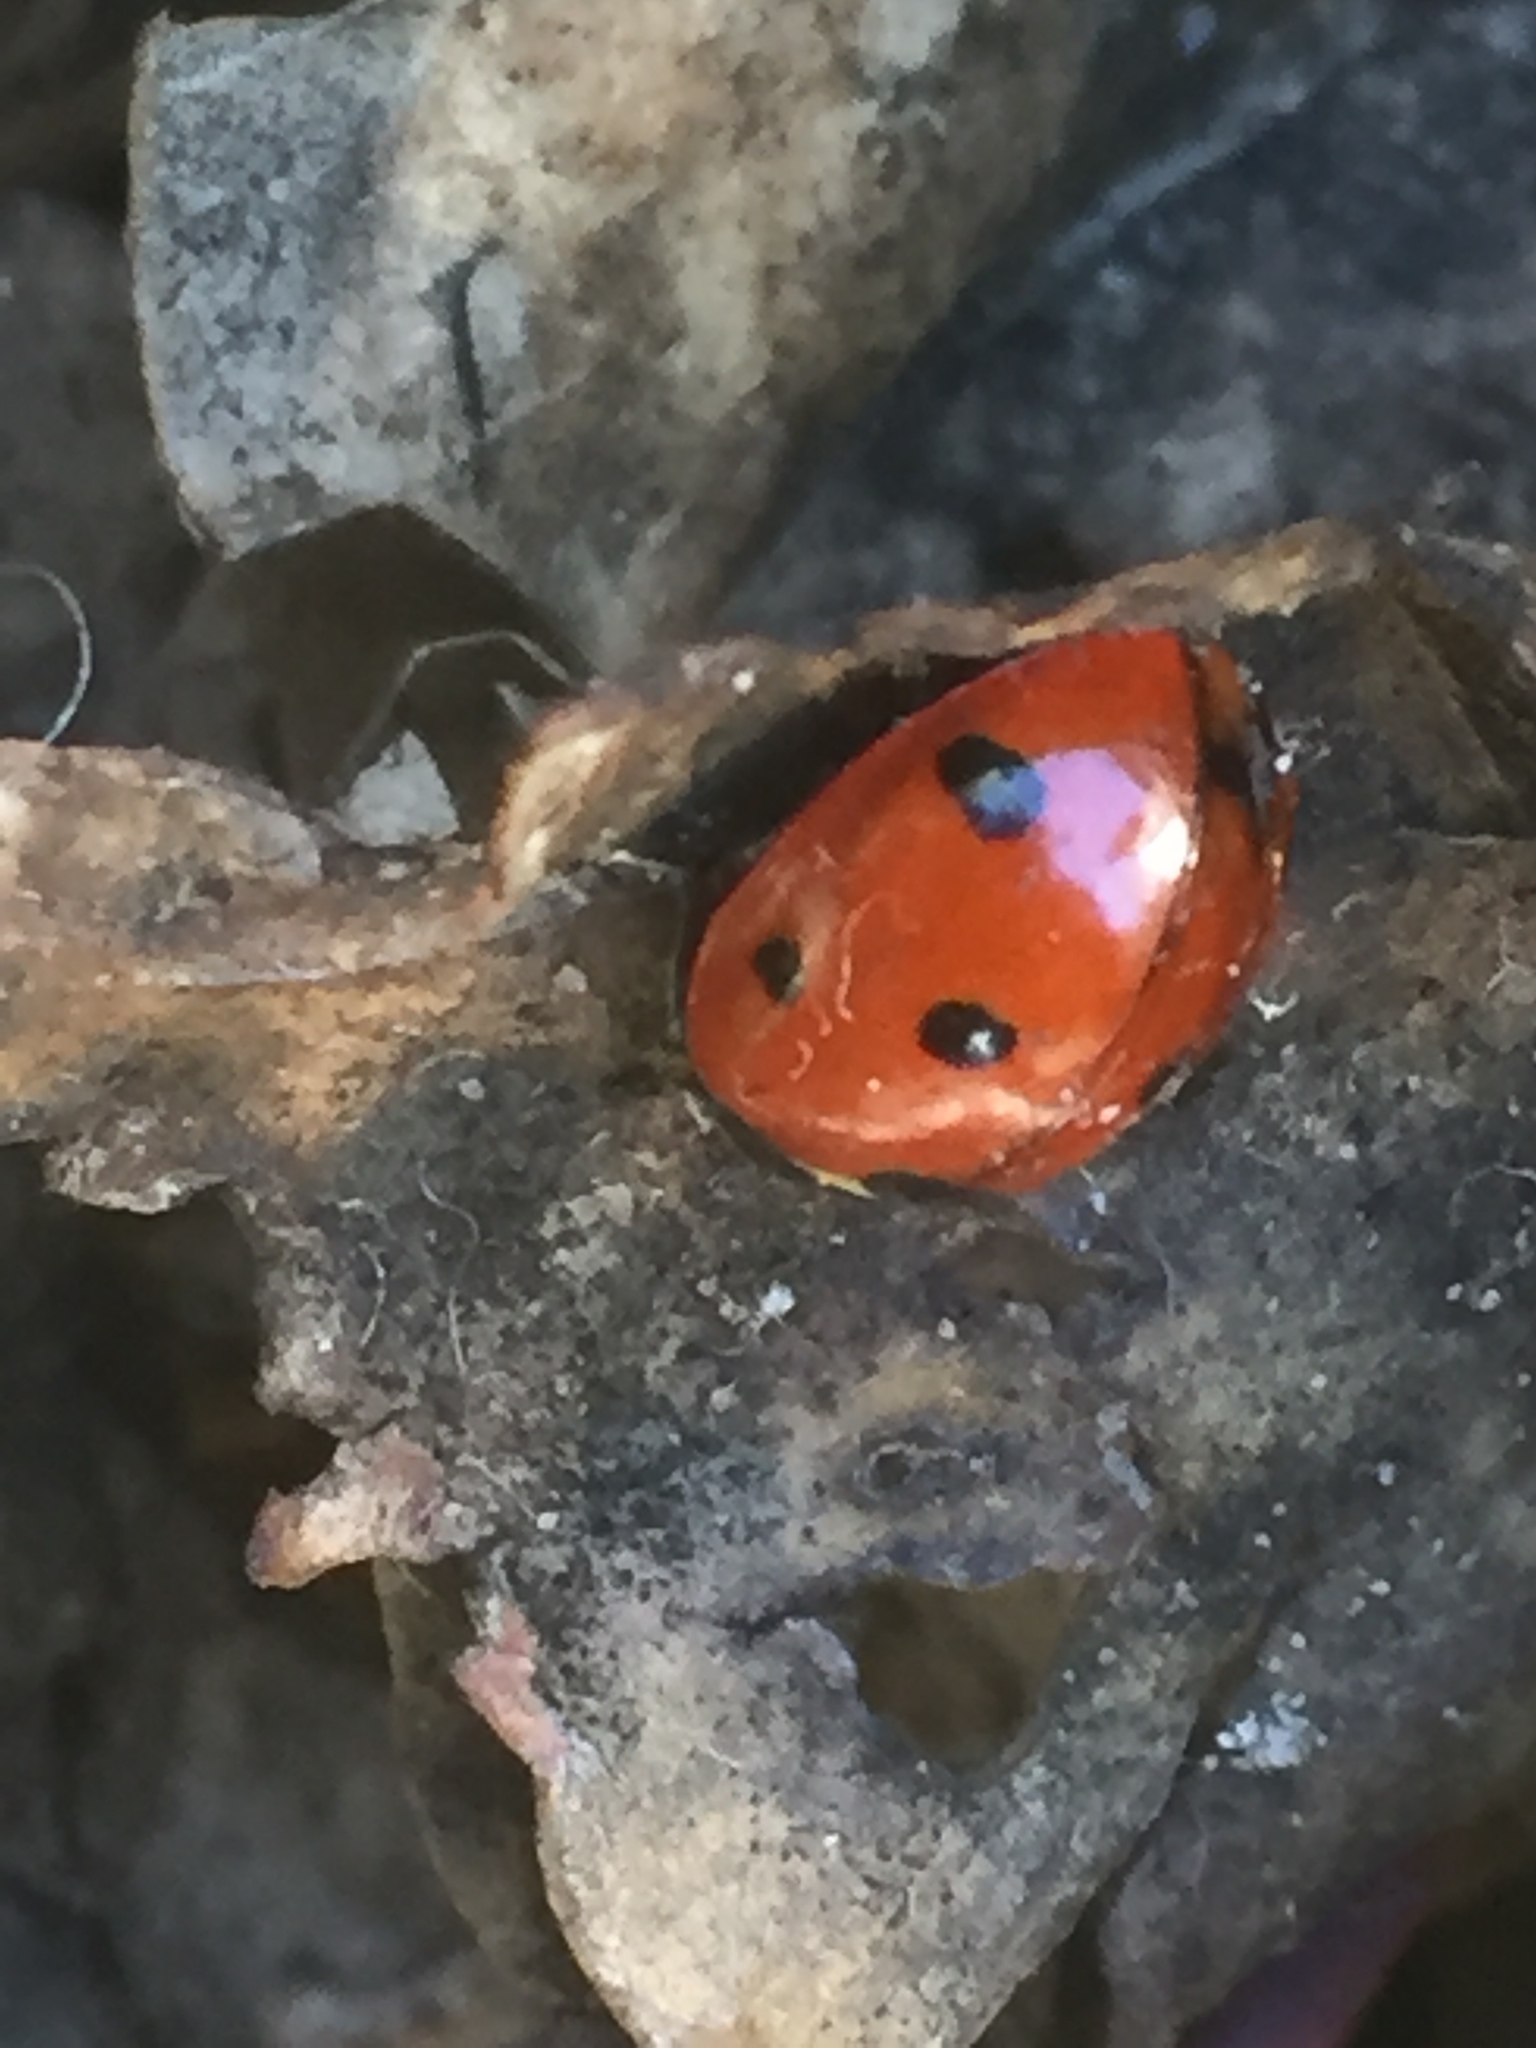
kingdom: Animalia
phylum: Arthropoda
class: Insecta
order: Coleoptera
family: Coccinellidae
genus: Coccinella
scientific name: Coccinella septempunctata
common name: Sevenspotted lady beetle
